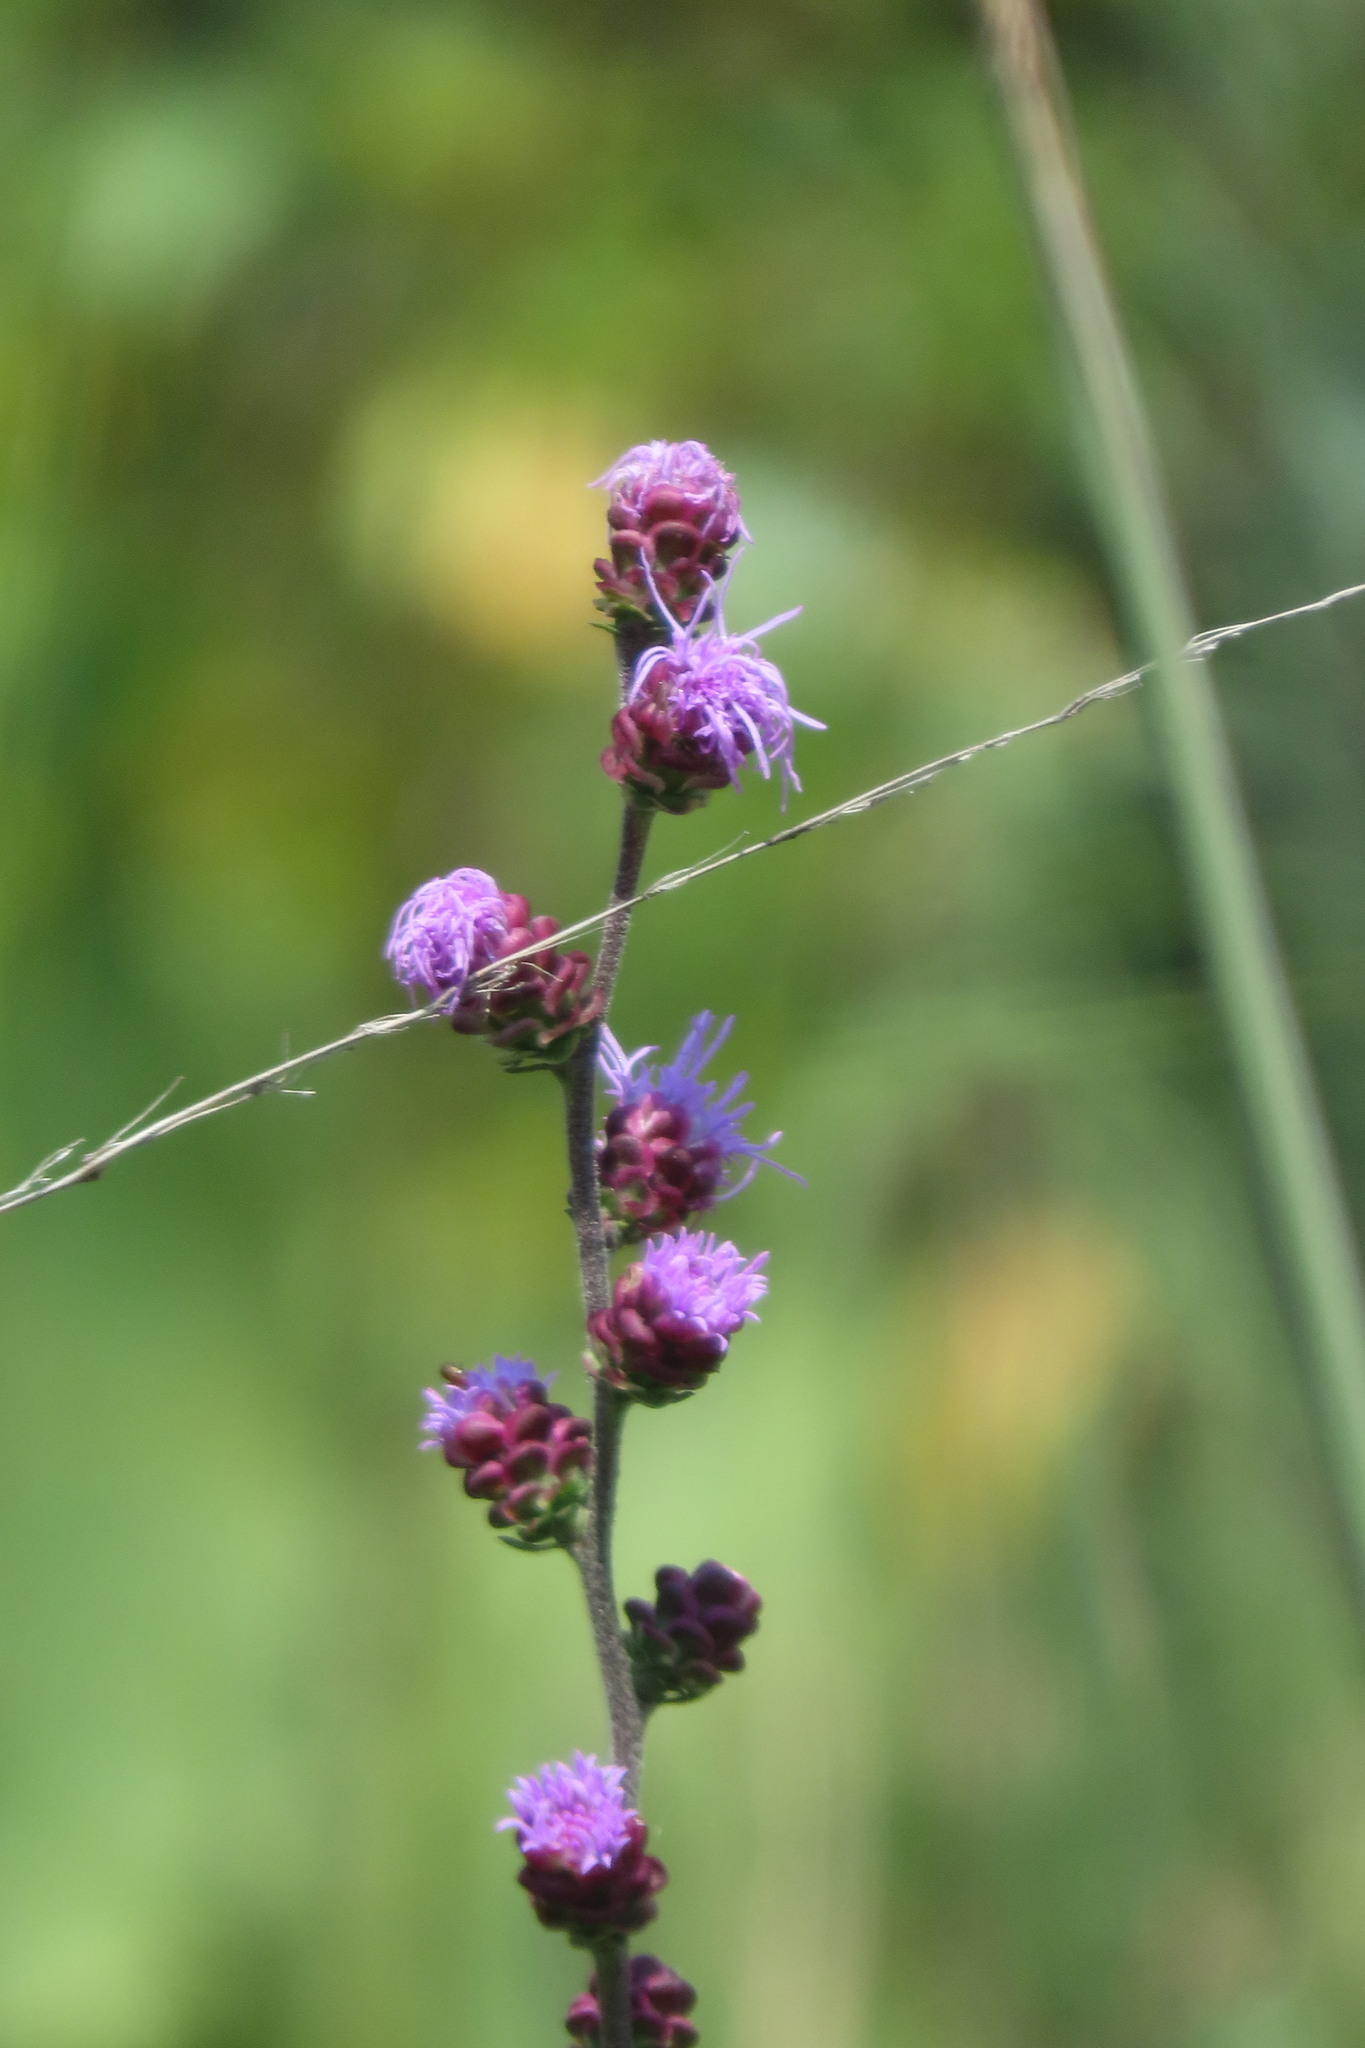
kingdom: Plantae
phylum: Tracheophyta
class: Magnoliopsida
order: Asterales
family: Asteraceae
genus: Liatris
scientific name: Liatris aspera
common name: Lacerate blazing-star
